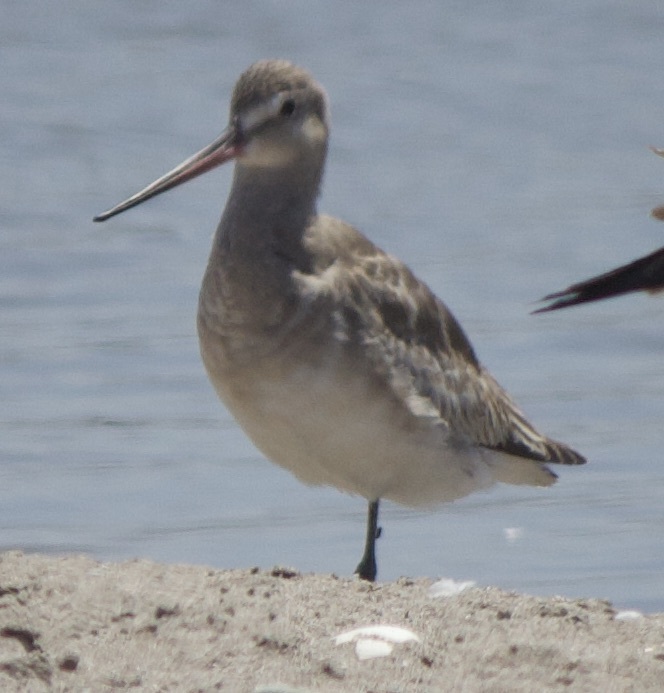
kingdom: Animalia
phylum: Chordata
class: Aves
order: Charadriiformes
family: Scolopacidae
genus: Limosa
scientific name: Limosa haemastica
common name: Hudsonian godwit
